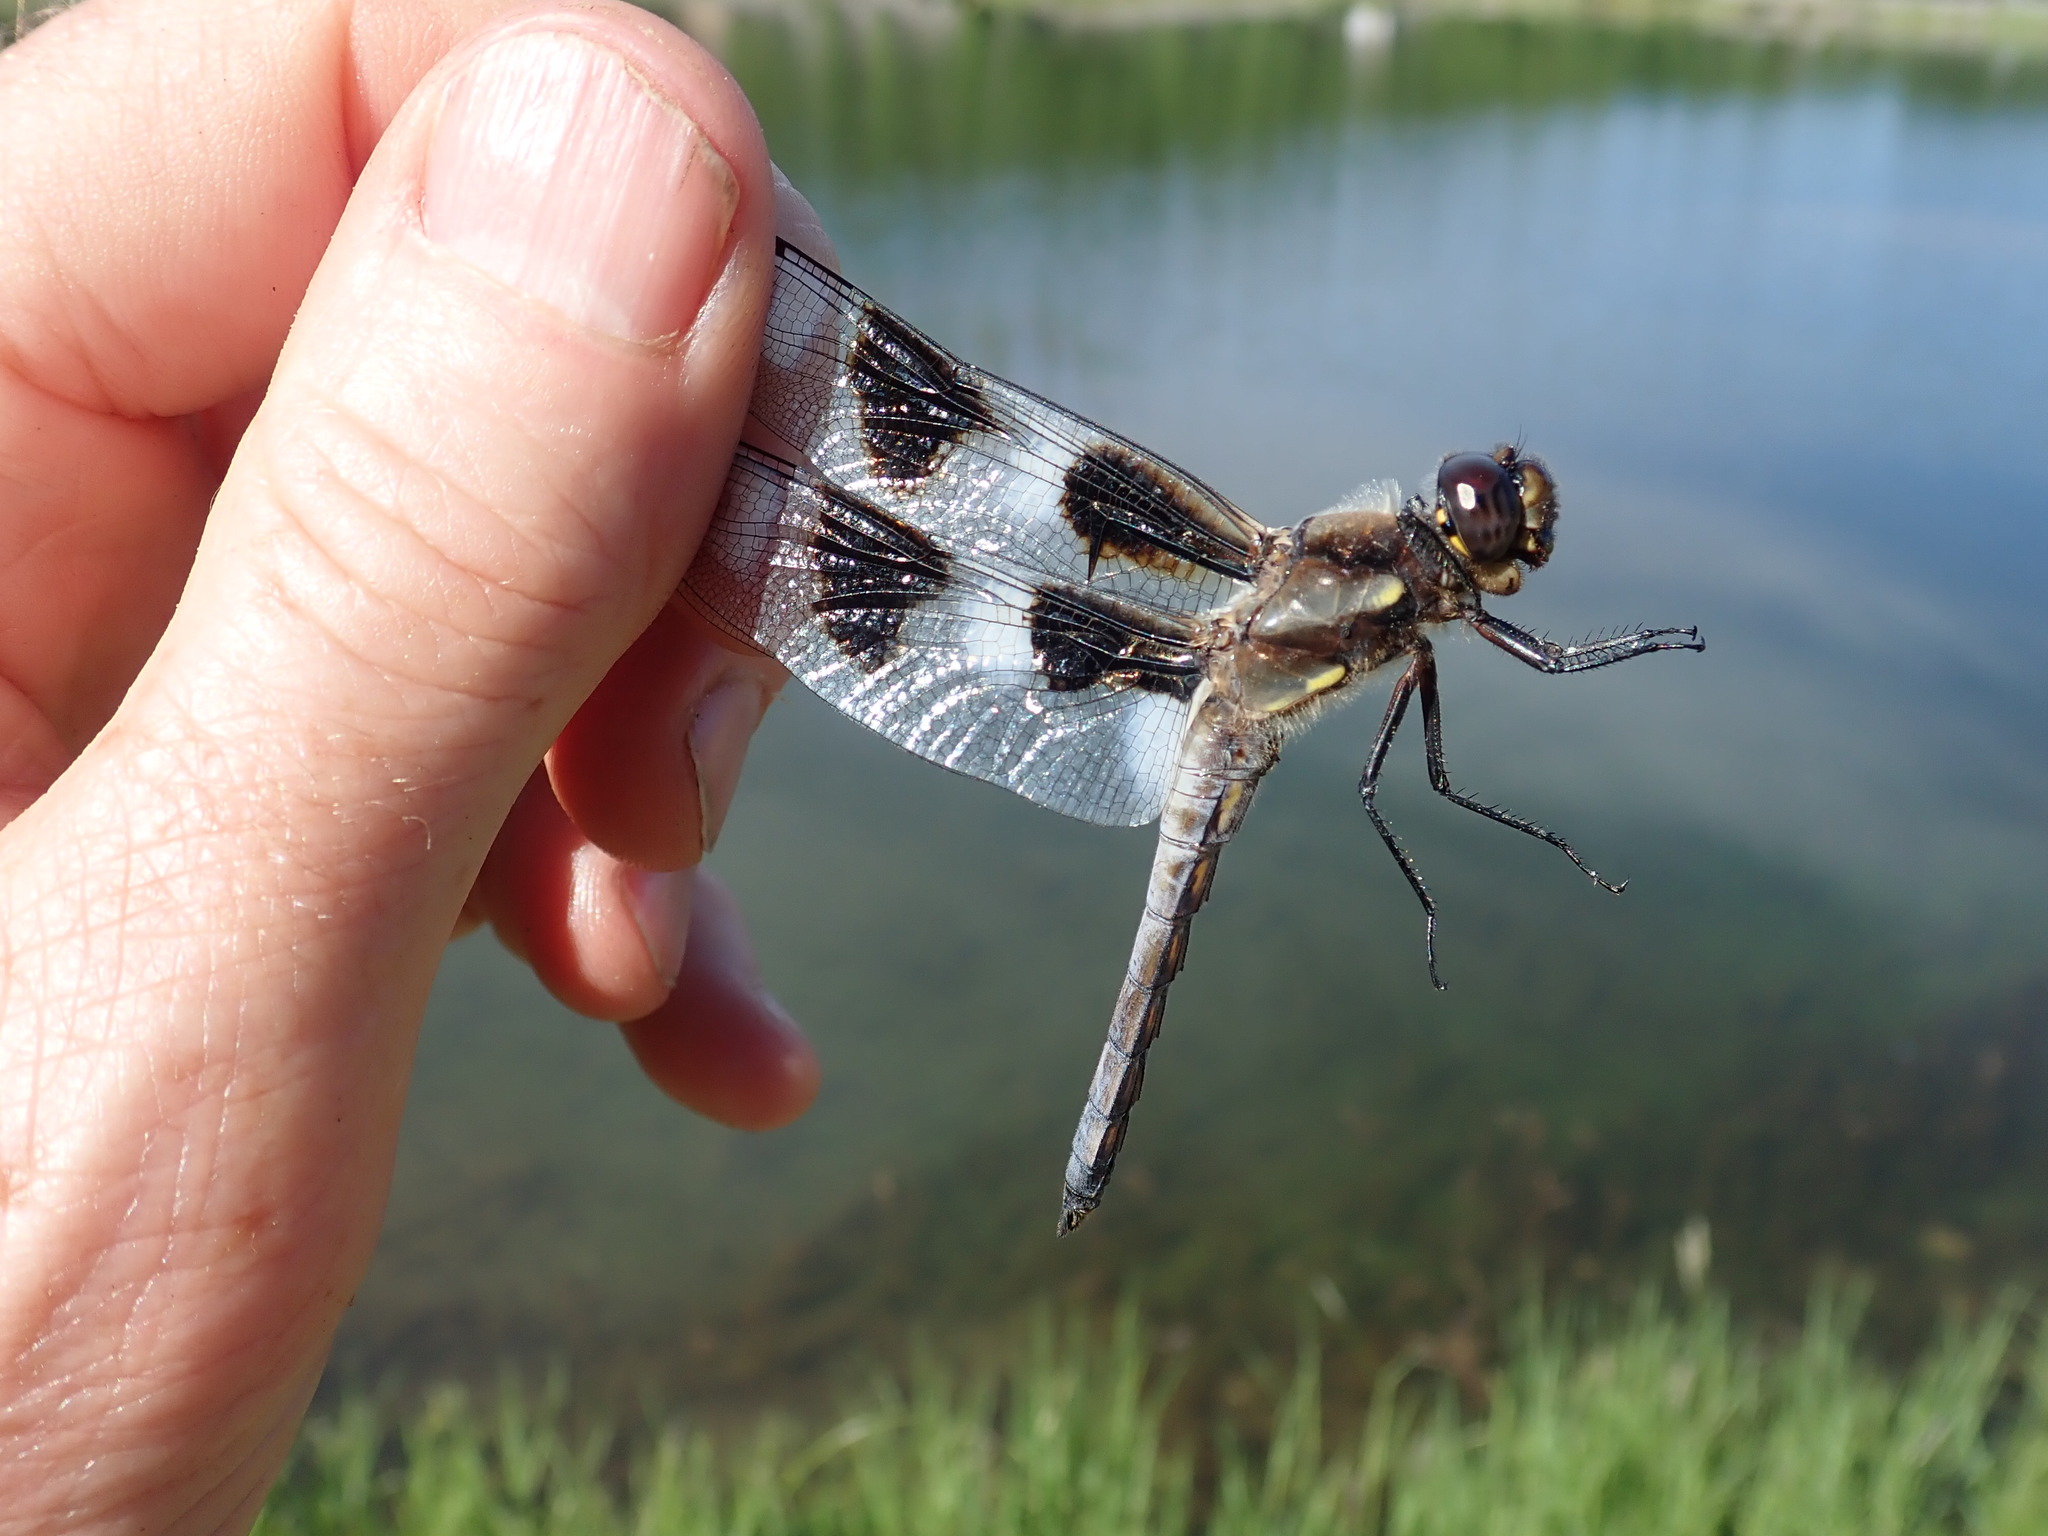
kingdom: Animalia
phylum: Arthropoda
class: Insecta
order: Odonata
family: Libellulidae
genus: Libellula
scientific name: Libellula pulchella
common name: Twelve-spotted skimmer
